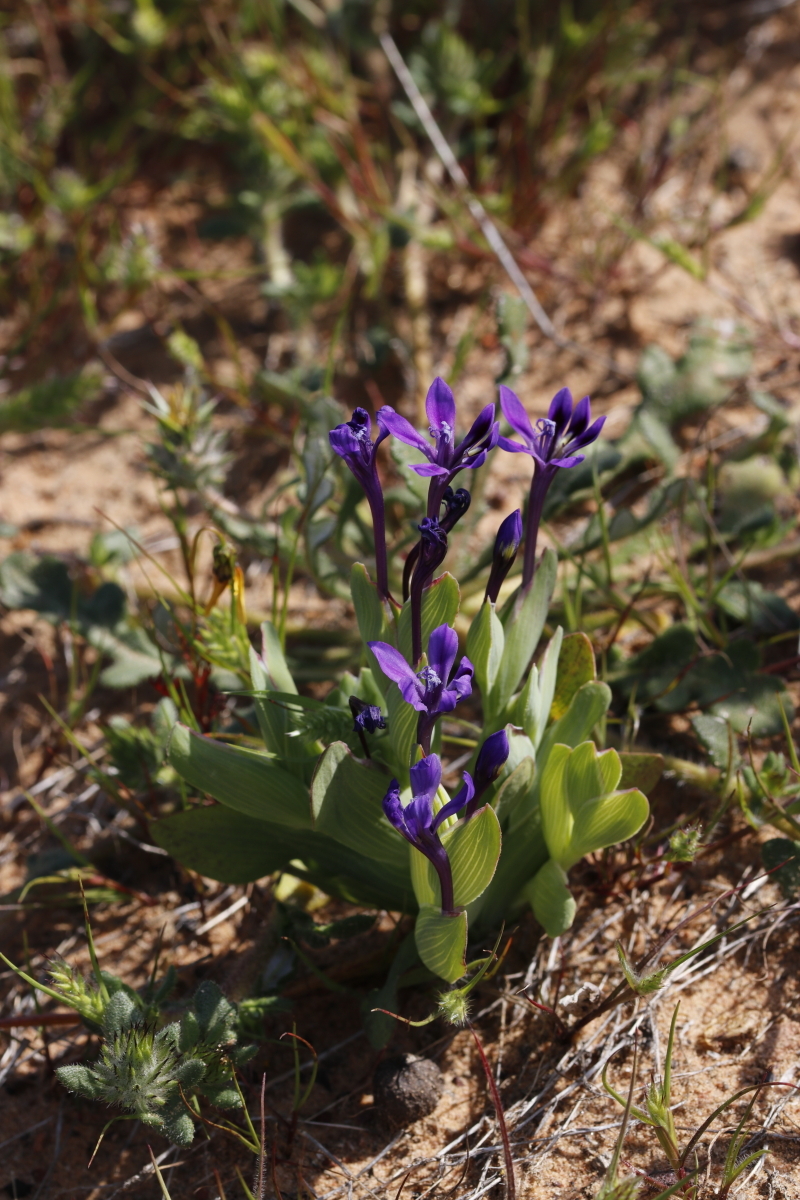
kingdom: Plantae
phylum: Tracheophyta
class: Liliopsida
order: Asparagales
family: Iridaceae
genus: Lapeirousia
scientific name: Lapeirousia violacea
